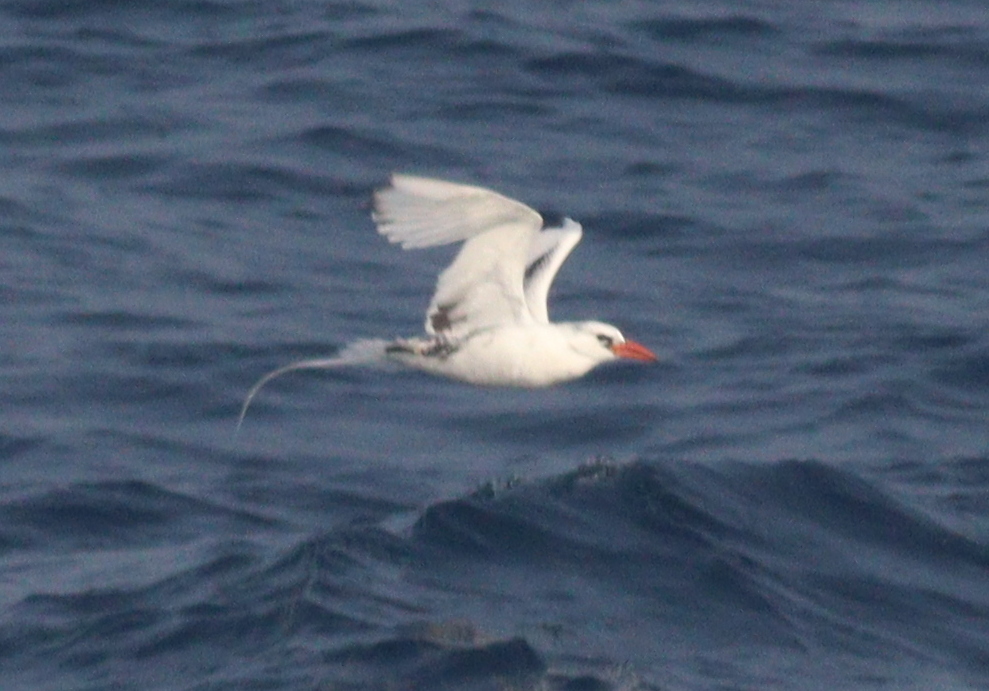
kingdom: Animalia
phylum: Chordata
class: Aves
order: Phaethontiformes
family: Phaethontidae
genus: Phaethon
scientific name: Phaethon aethereus
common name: Red-billed tropicbird
